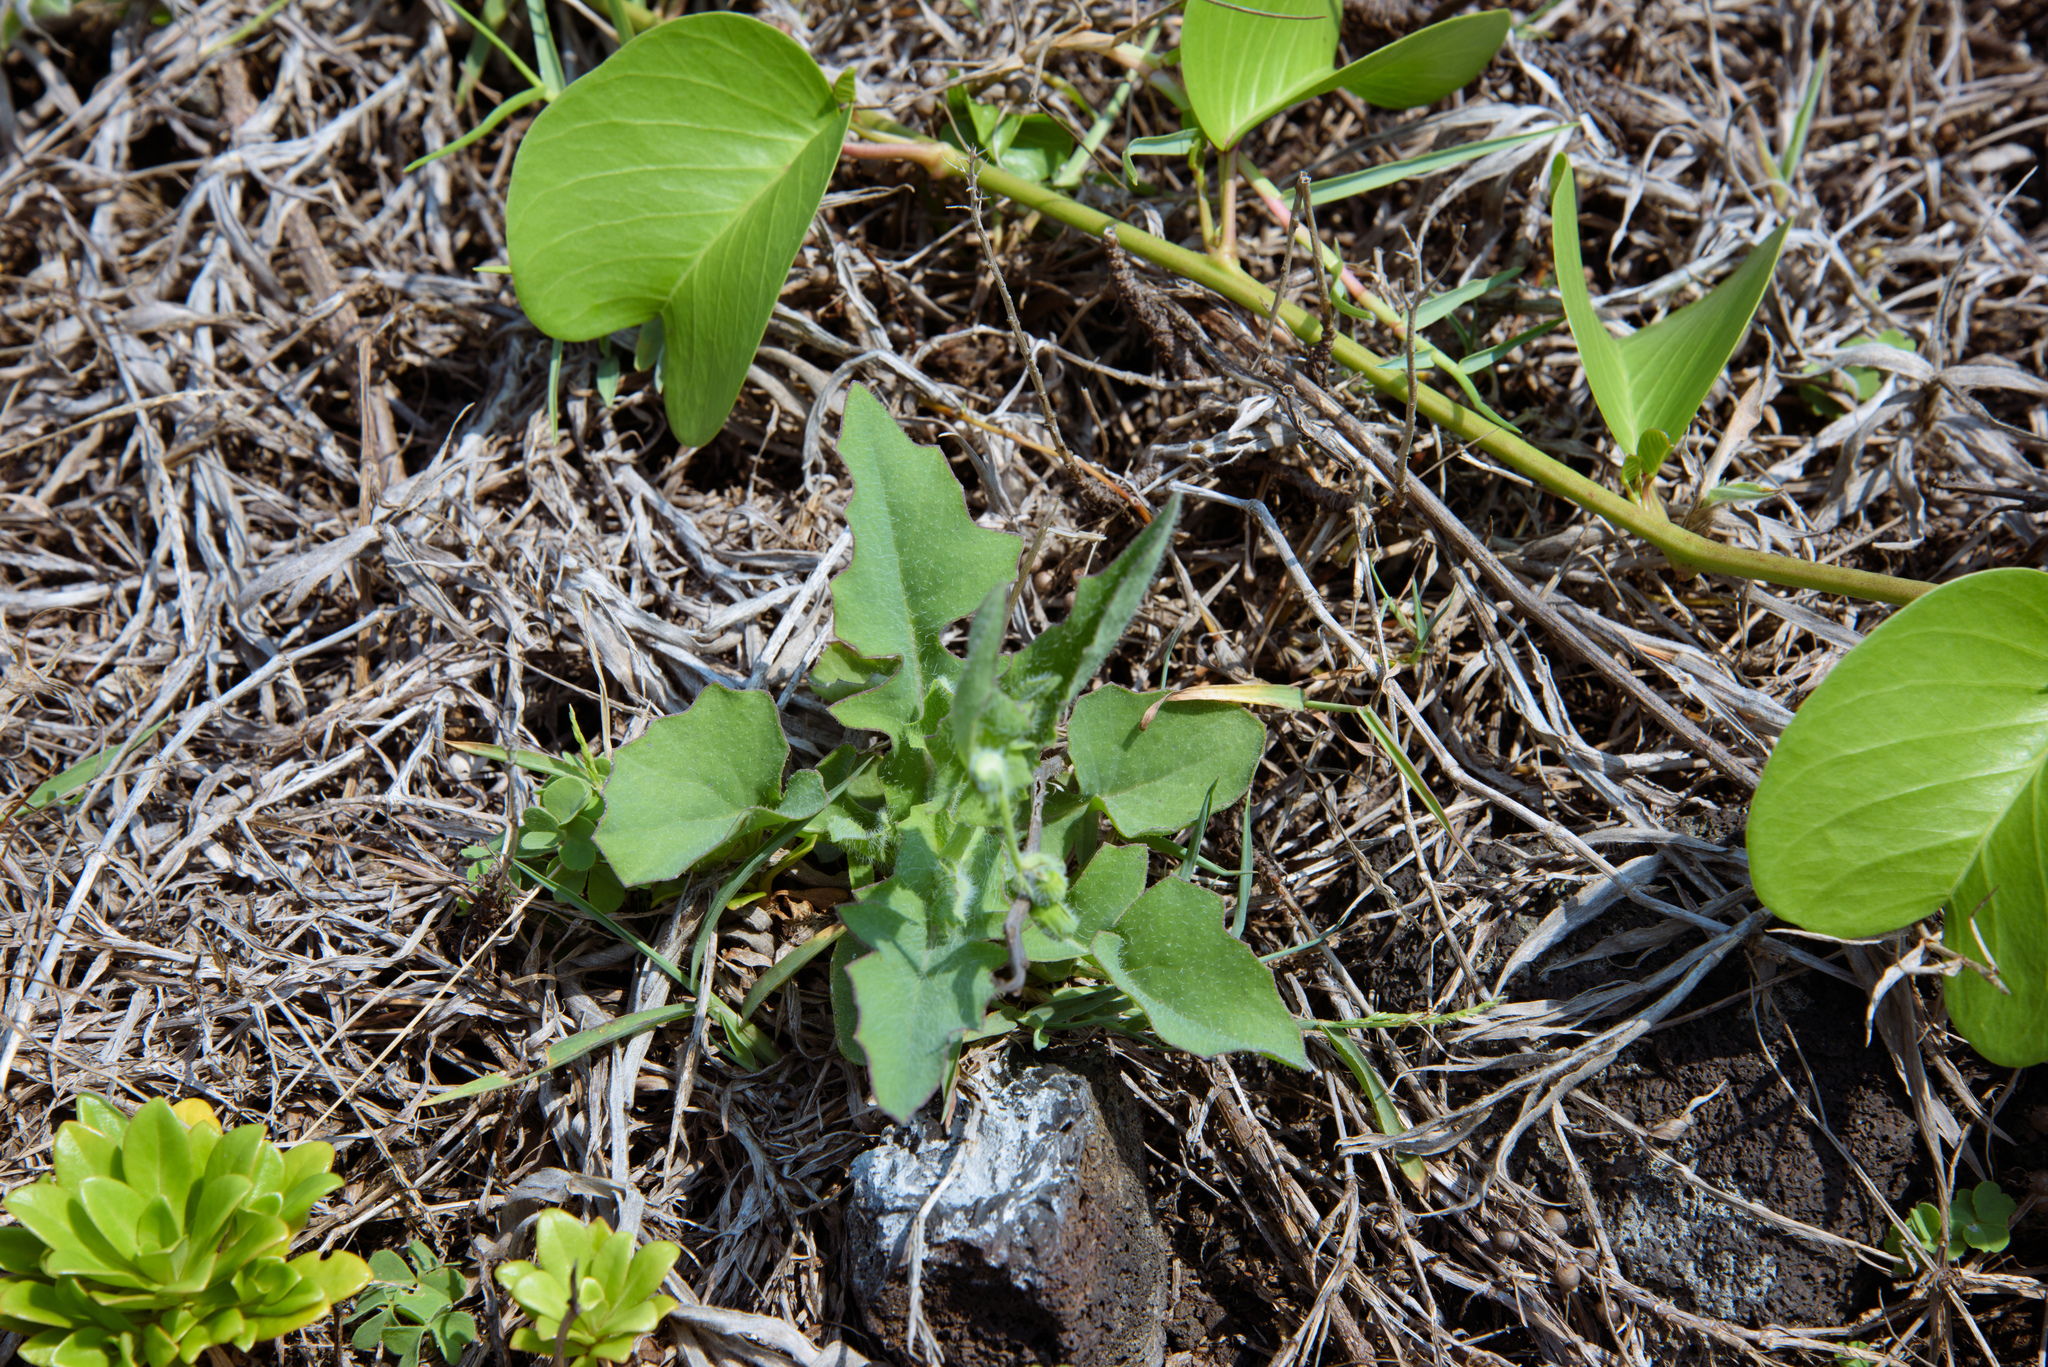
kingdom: Plantae
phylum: Tracheophyta
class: Magnoliopsida
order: Asterales
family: Asteraceae
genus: Emilia
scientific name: Emilia javanica
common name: Tassel-flower
